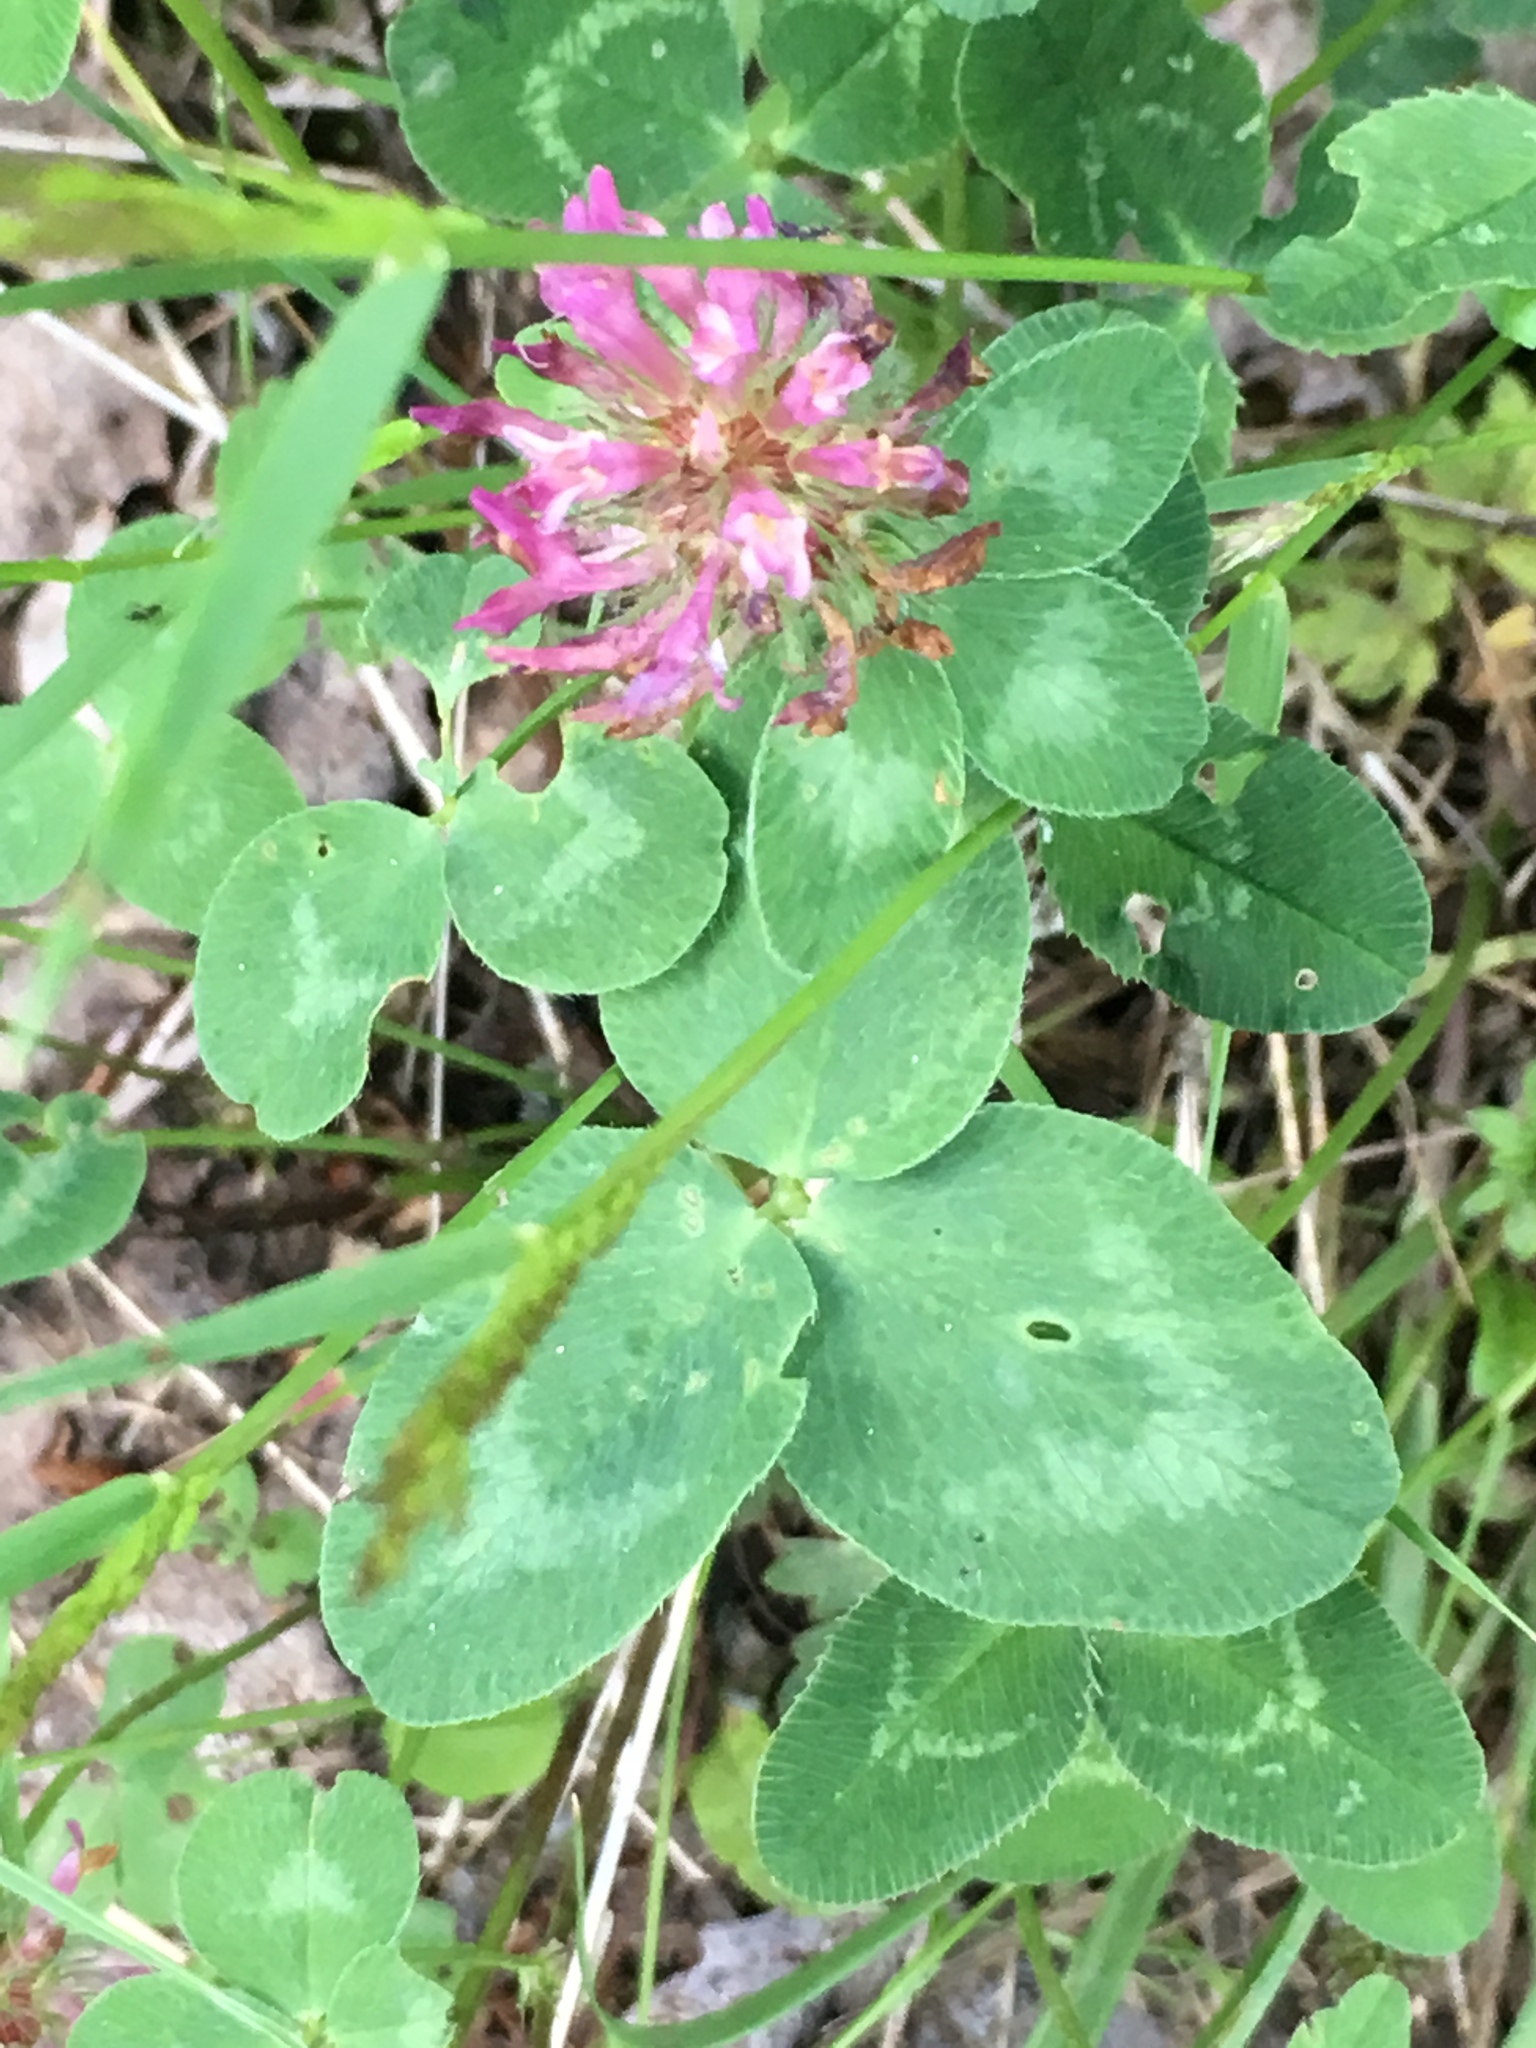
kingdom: Plantae
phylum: Tracheophyta
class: Magnoliopsida
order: Fabales
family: Fabaceae
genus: Trifolium
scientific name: Trifolium pratense
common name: Red clover
